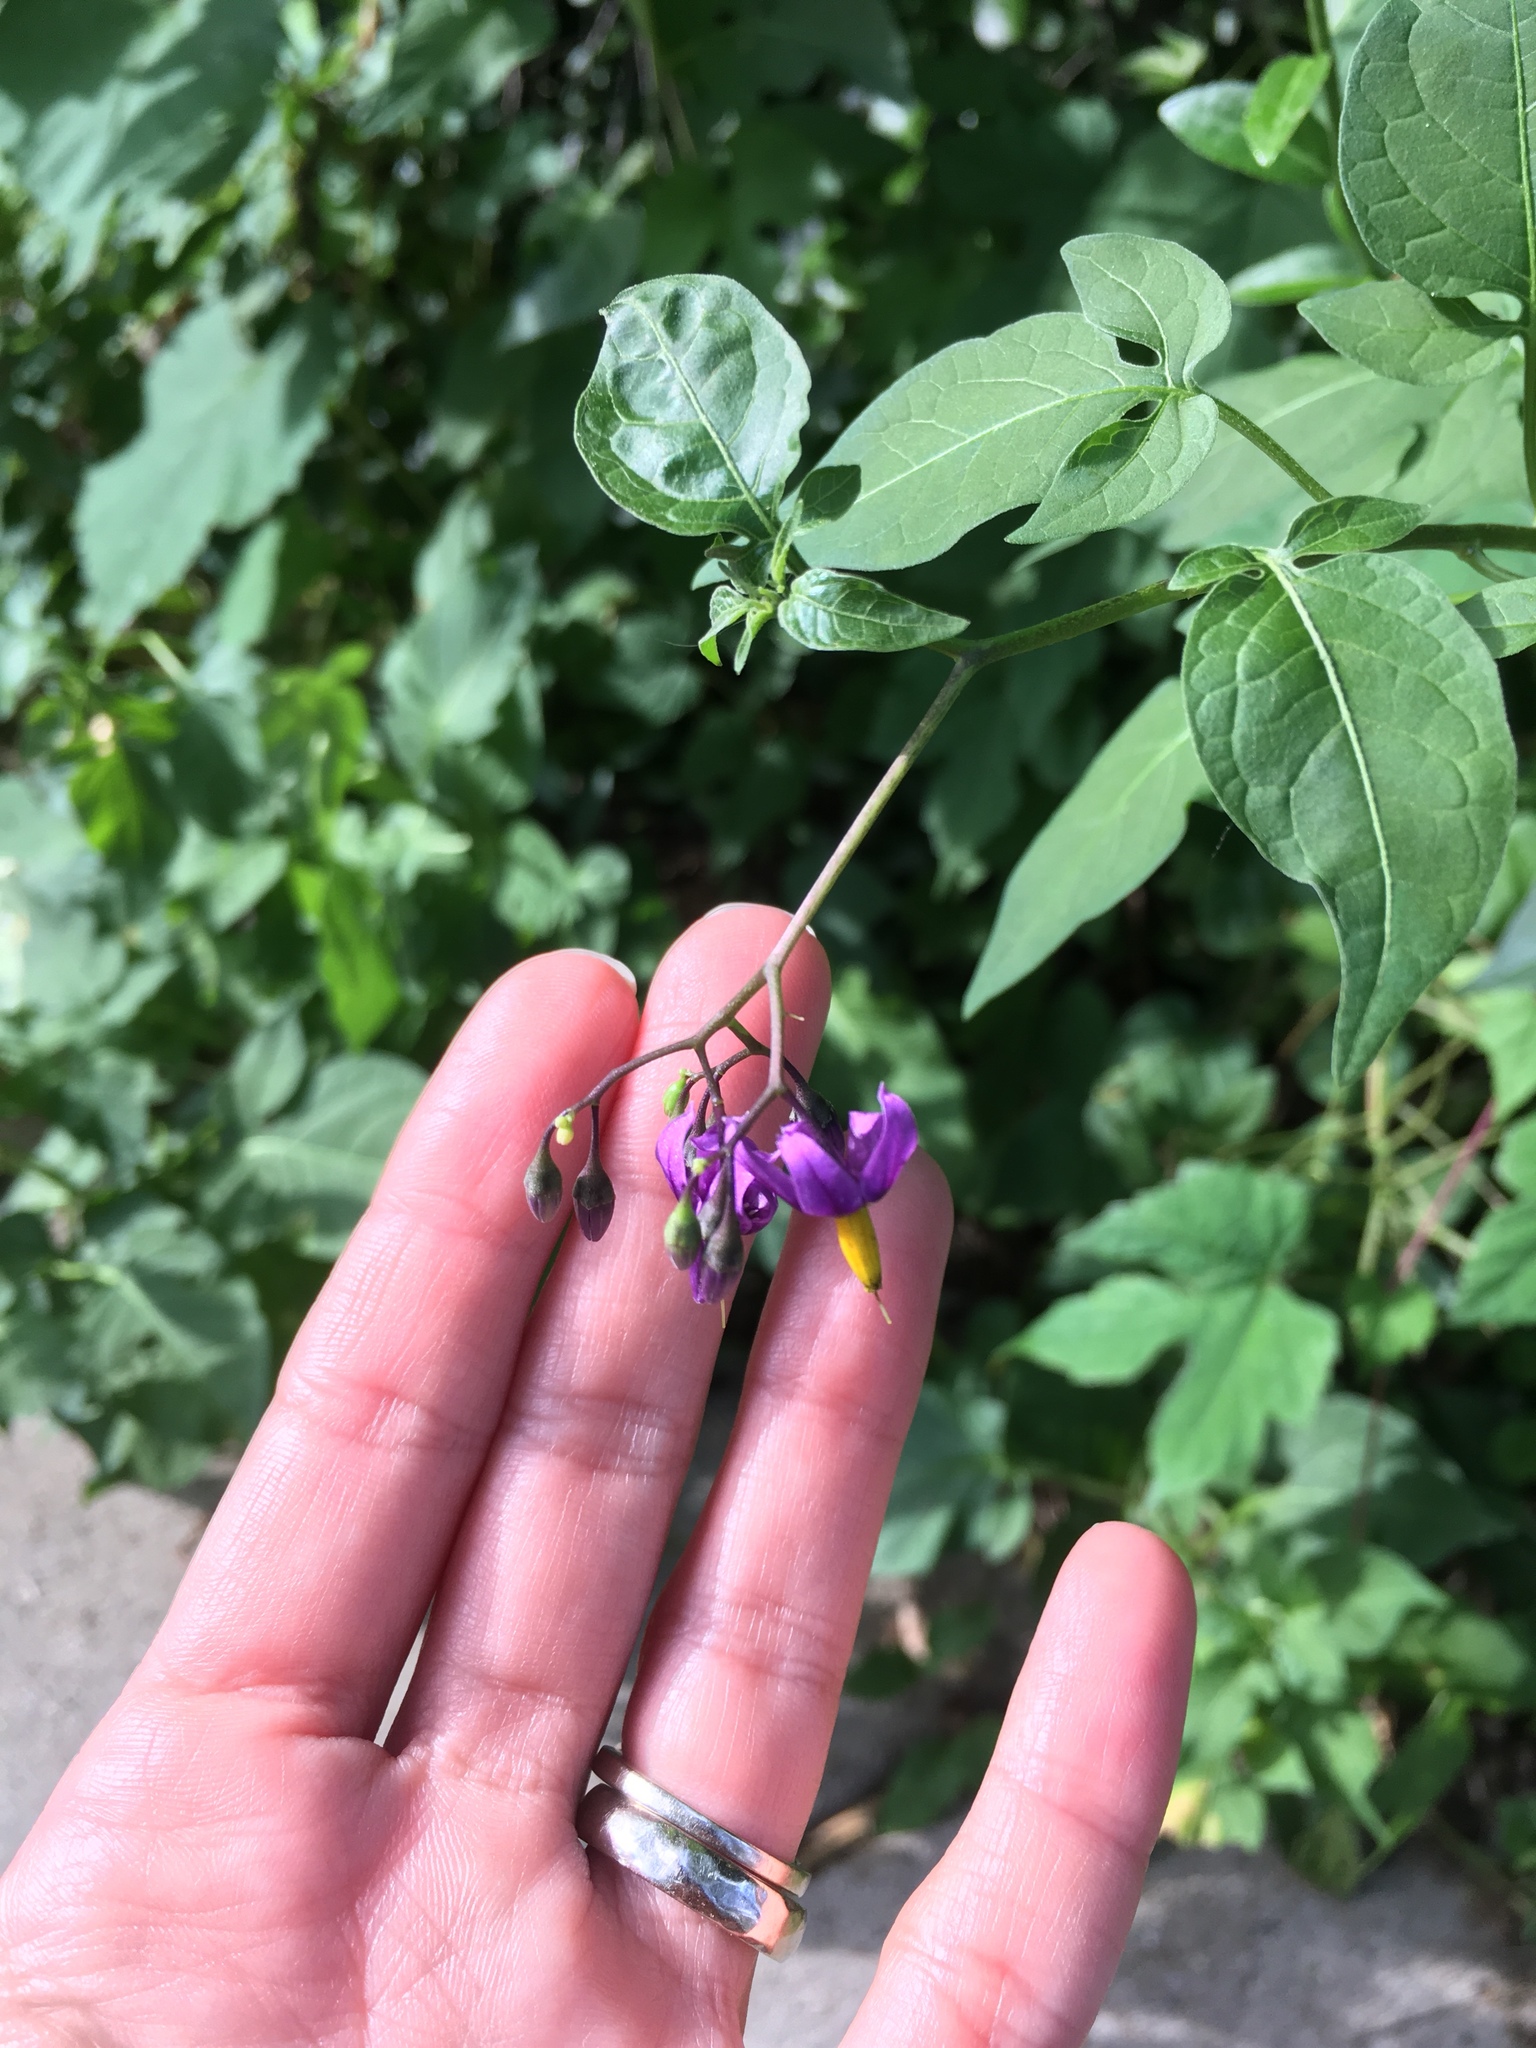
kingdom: Plantae
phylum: Tracheophyta
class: Magnoliopsida
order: Solanales
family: Solanaceae
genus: Solanum
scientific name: Solanum dulcamara
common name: Climbing nightshade
